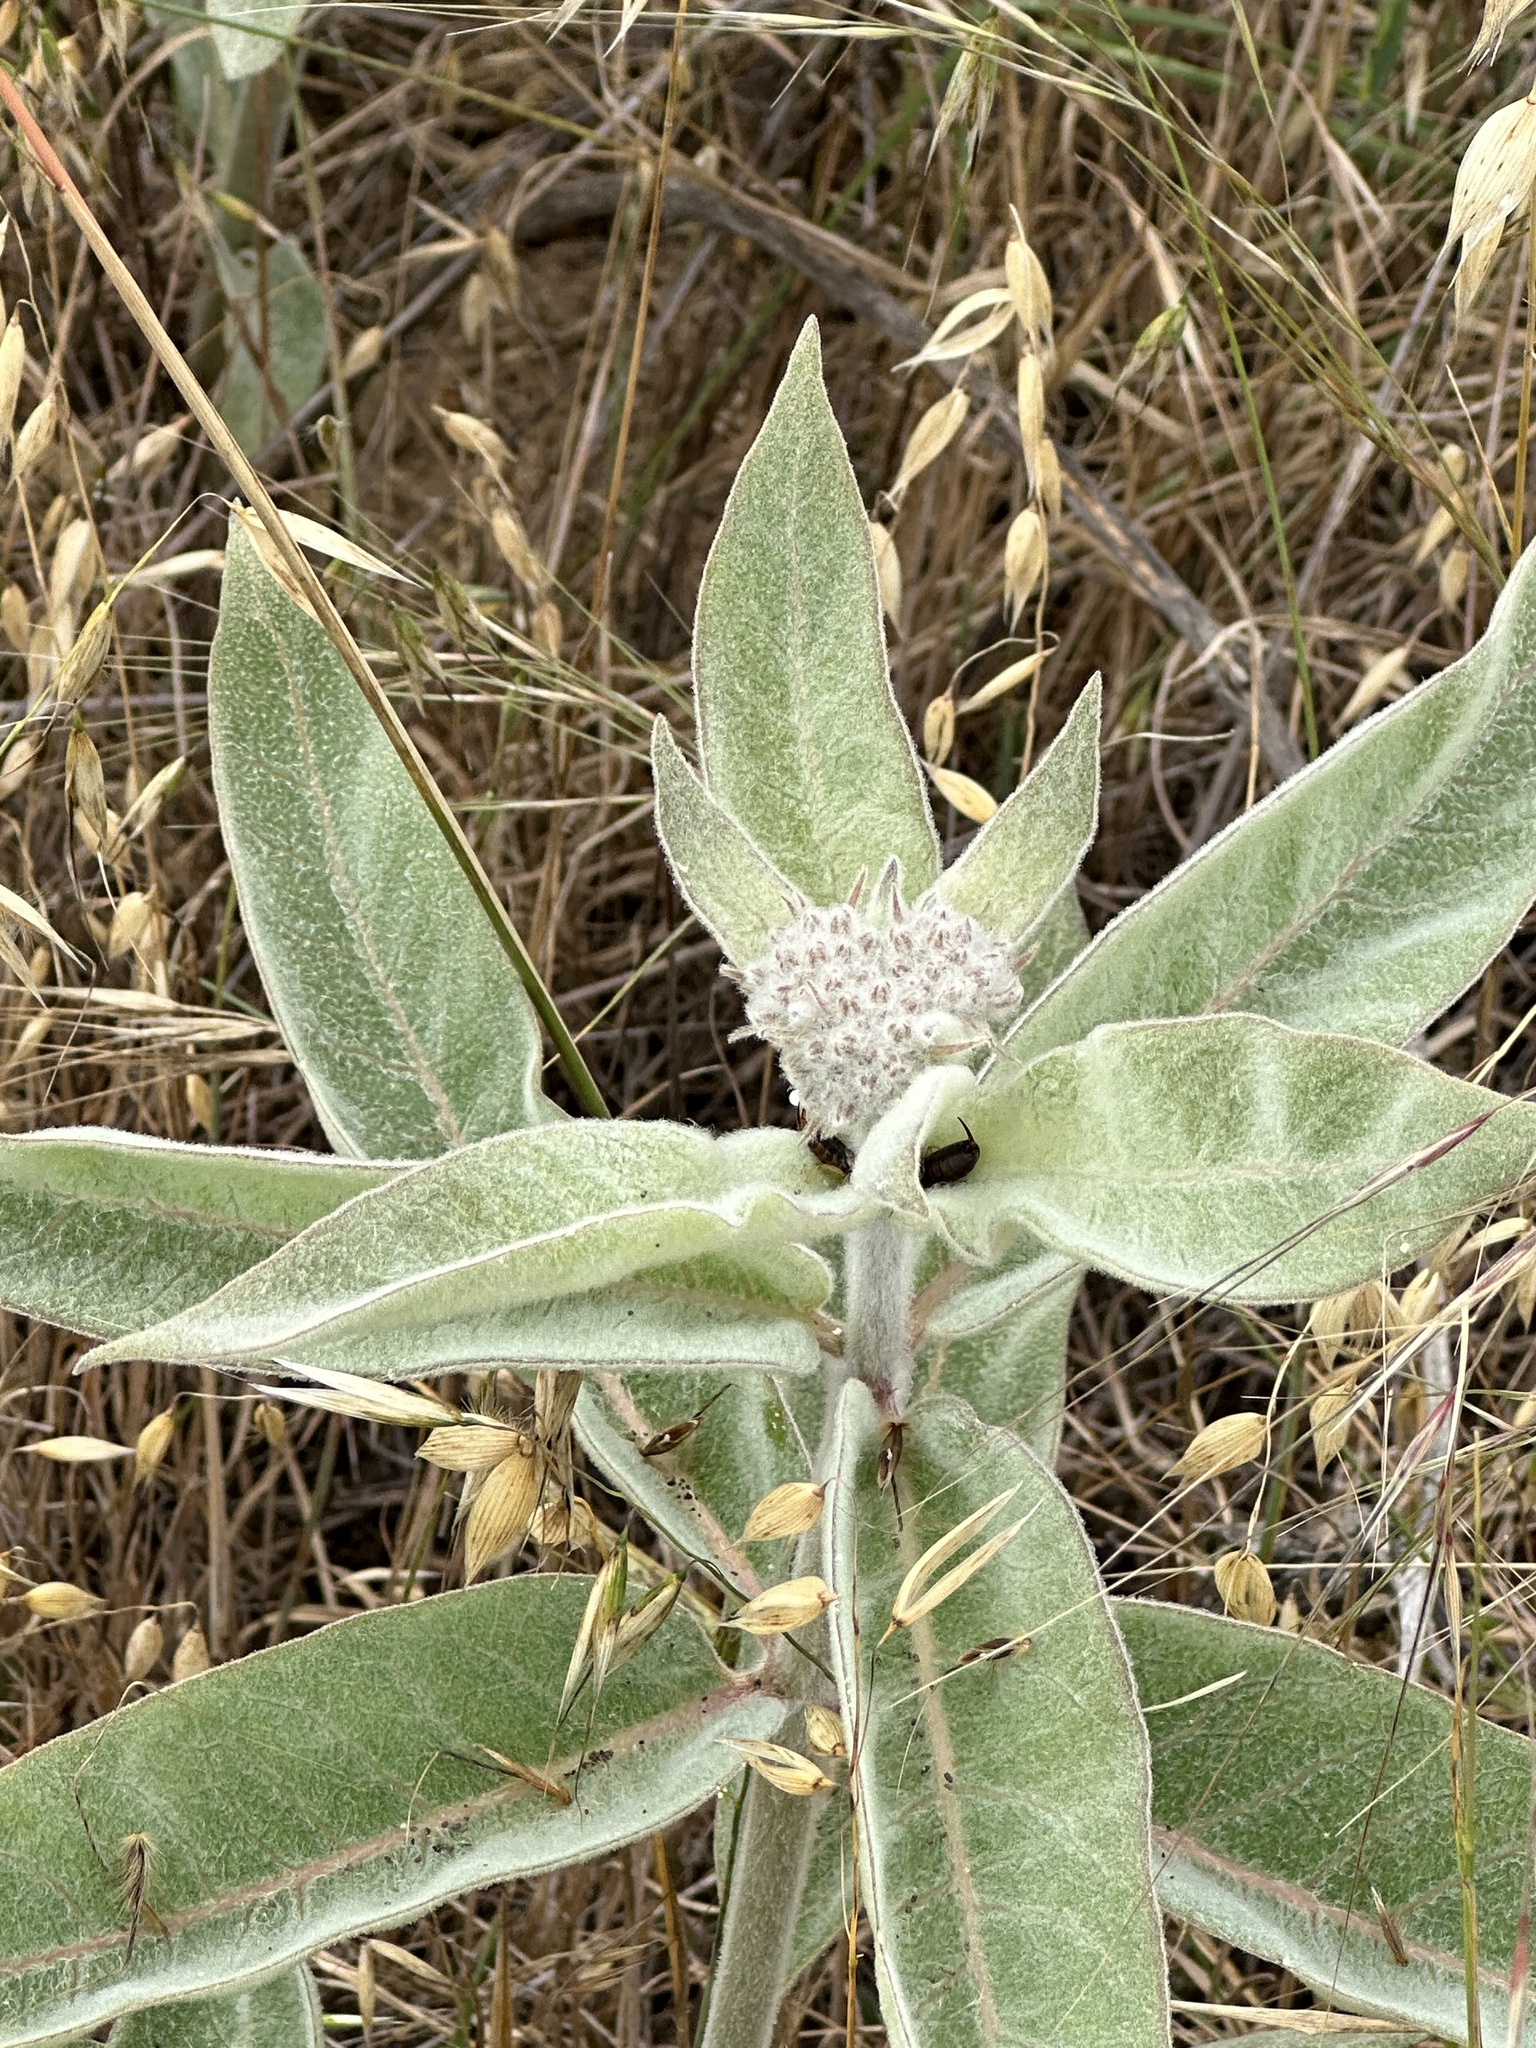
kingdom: Plantae
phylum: Tracheophyta
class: Magnoliopsida
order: Gentianales
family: Apocynaceae
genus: Asclepias
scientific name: Asclepias eriocarpa
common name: Indian milkweed
